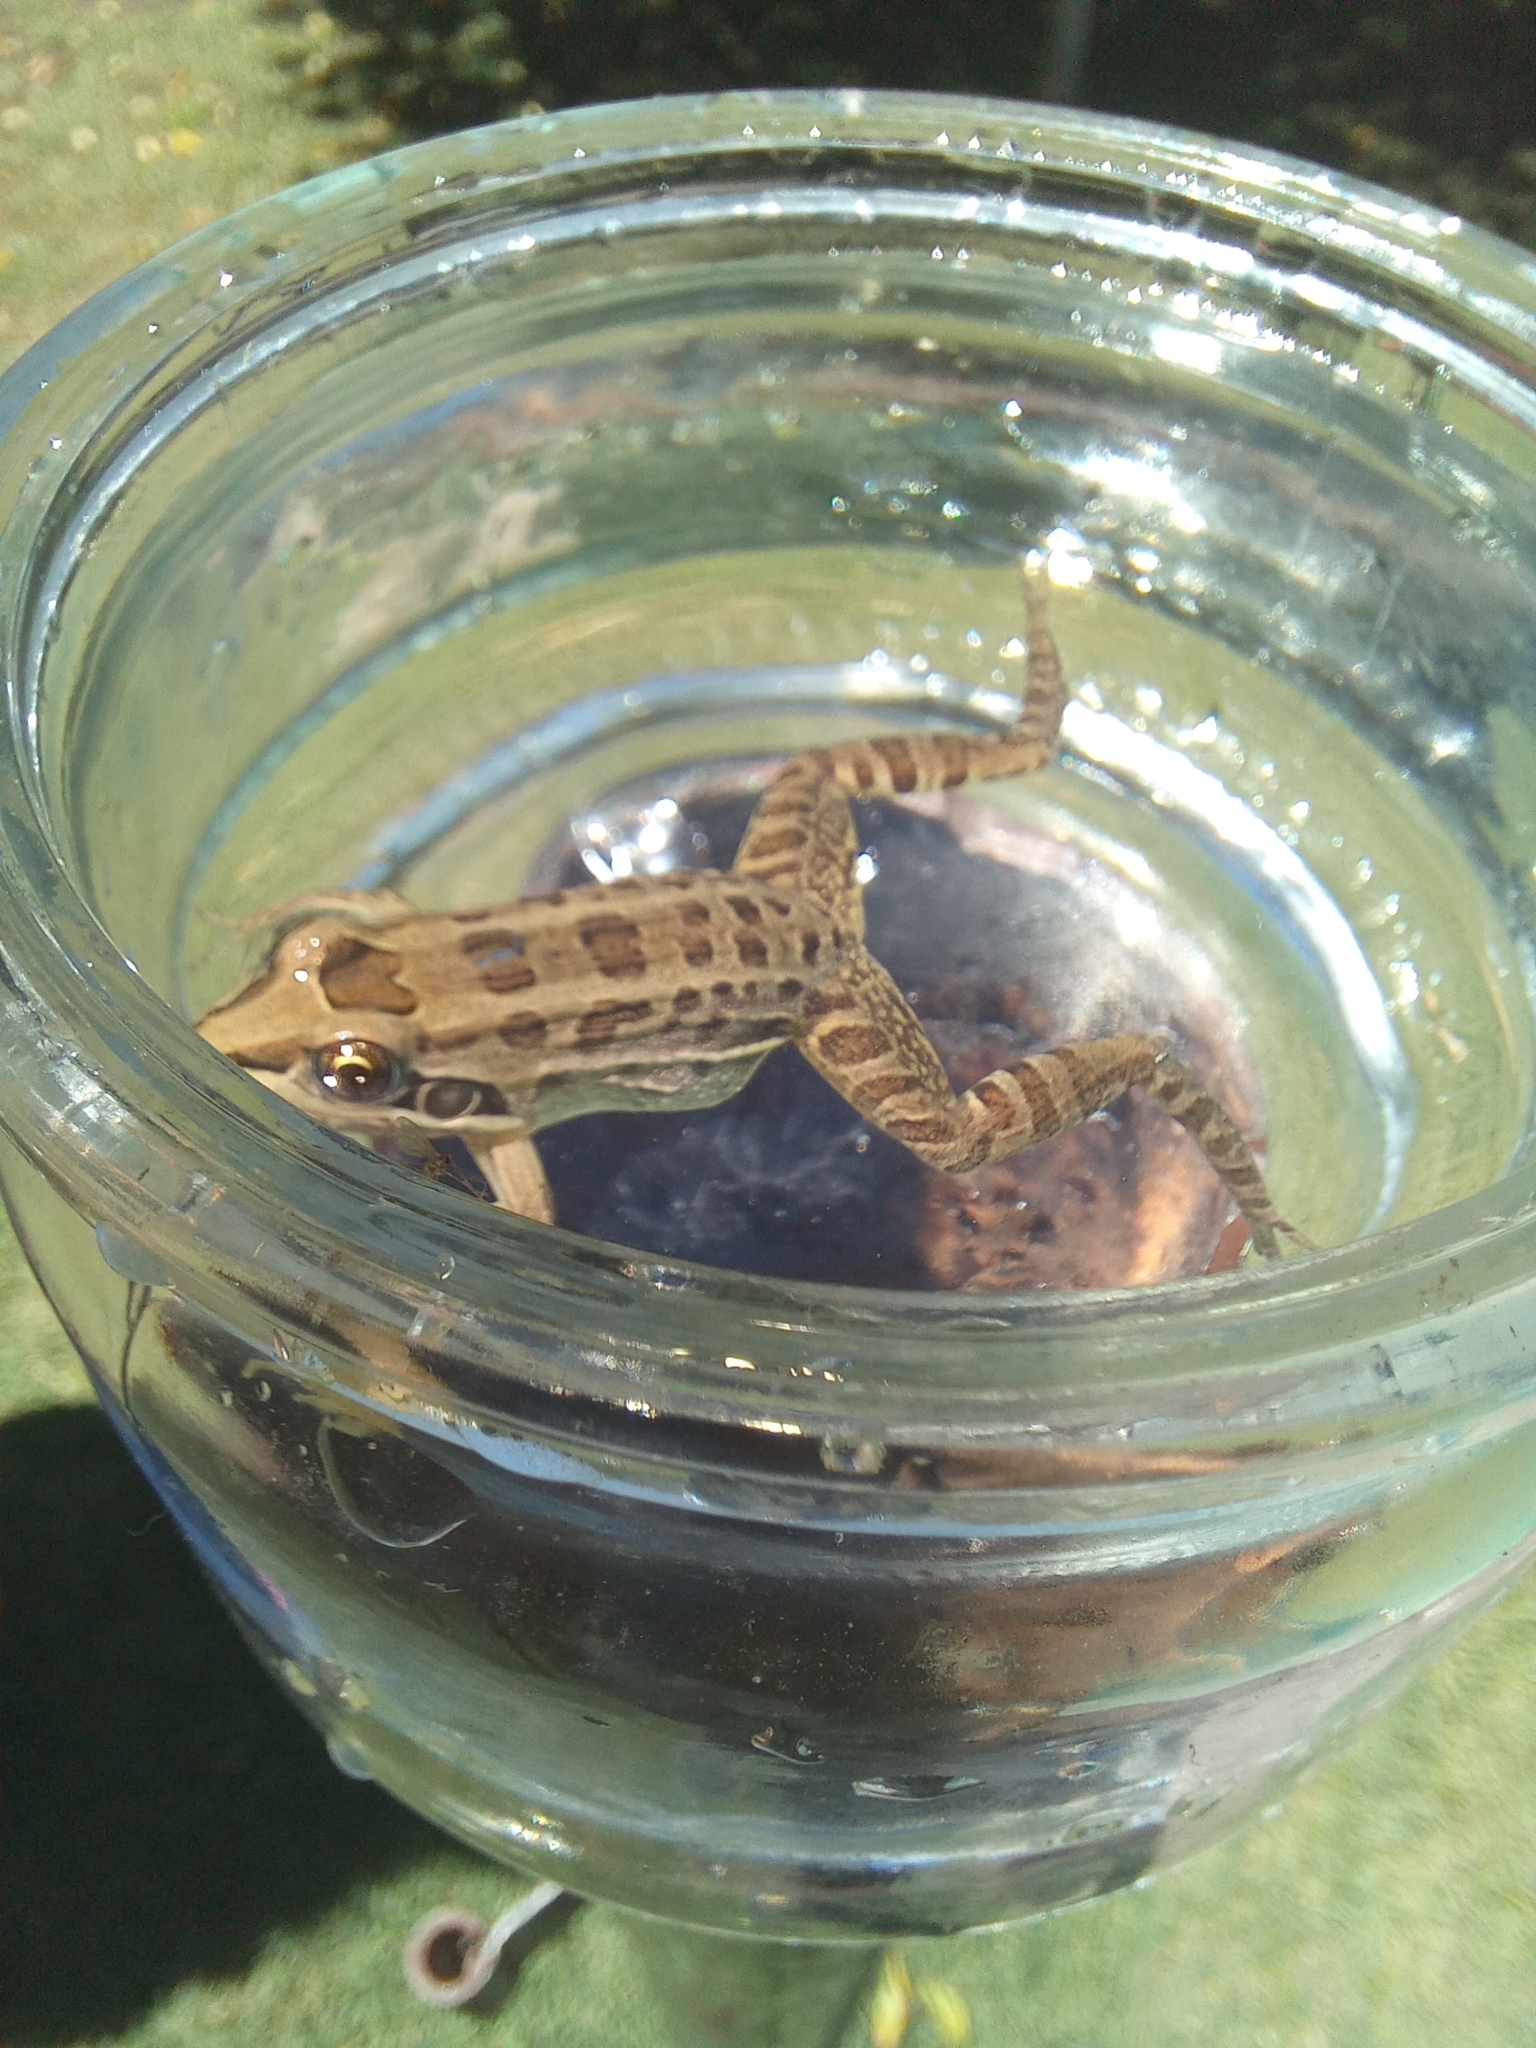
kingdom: Animalia
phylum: Chordata
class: Amphibia
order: Anura
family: Leptodactylidae
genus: Leptodactylus
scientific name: Leptodactylus luctator
